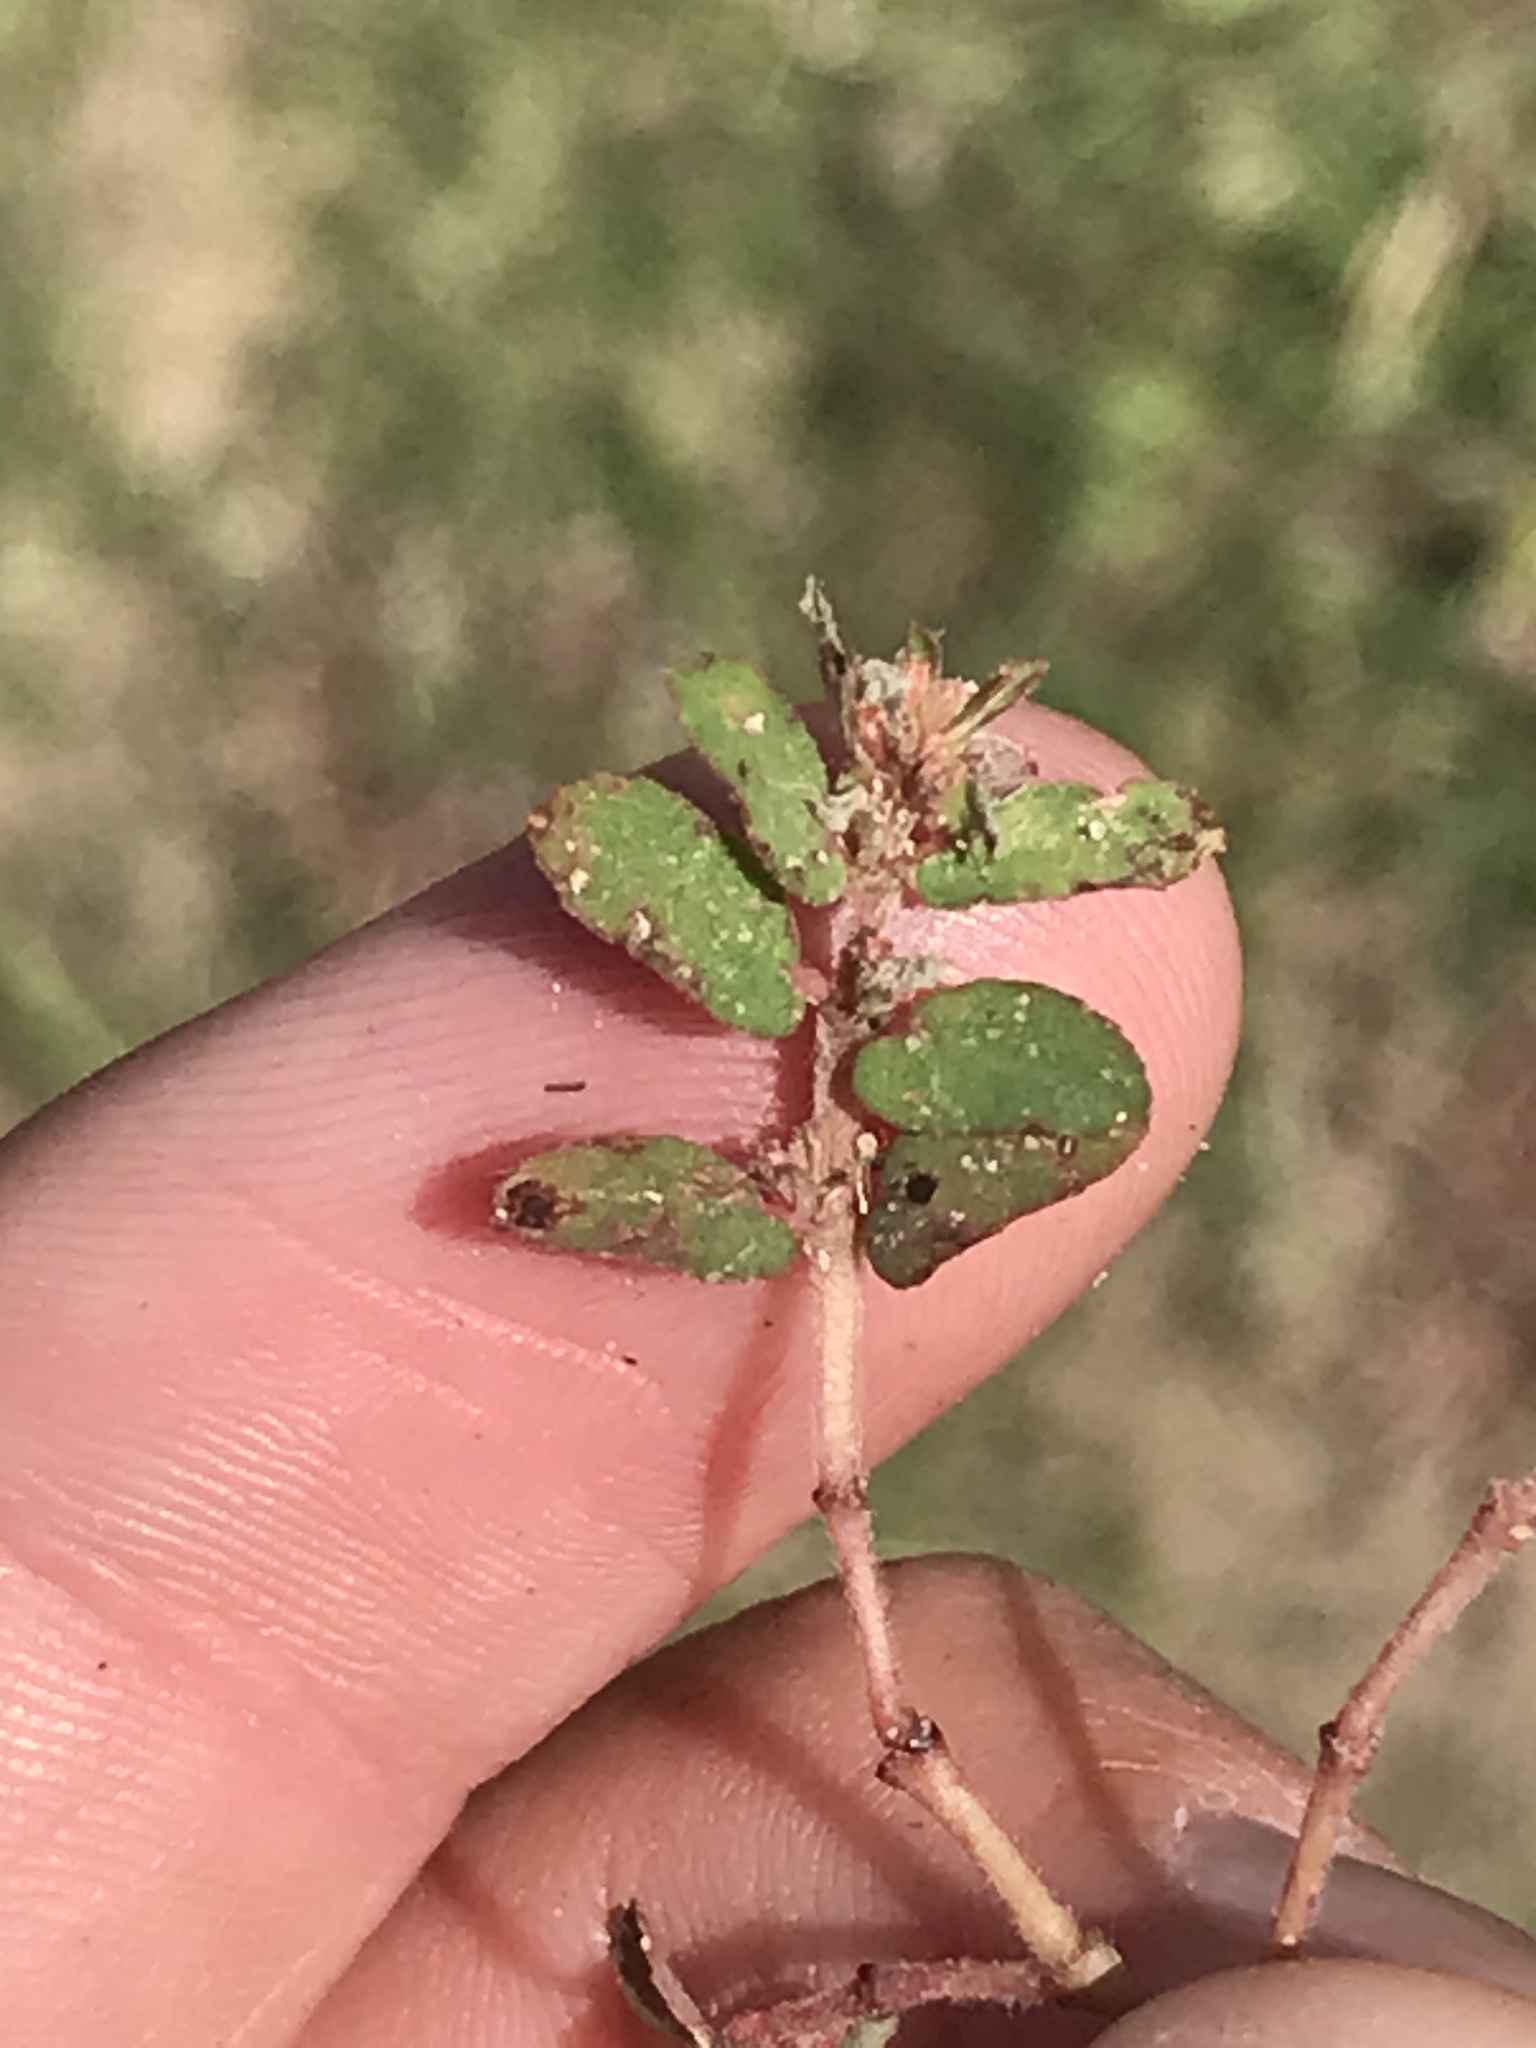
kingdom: Plantae
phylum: Tracheophyta
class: Magnoliopsida
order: Malpighiales
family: Euphorbiaceae
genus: Euphorbia
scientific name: Euphorbia maculata
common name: Spotted spurge
